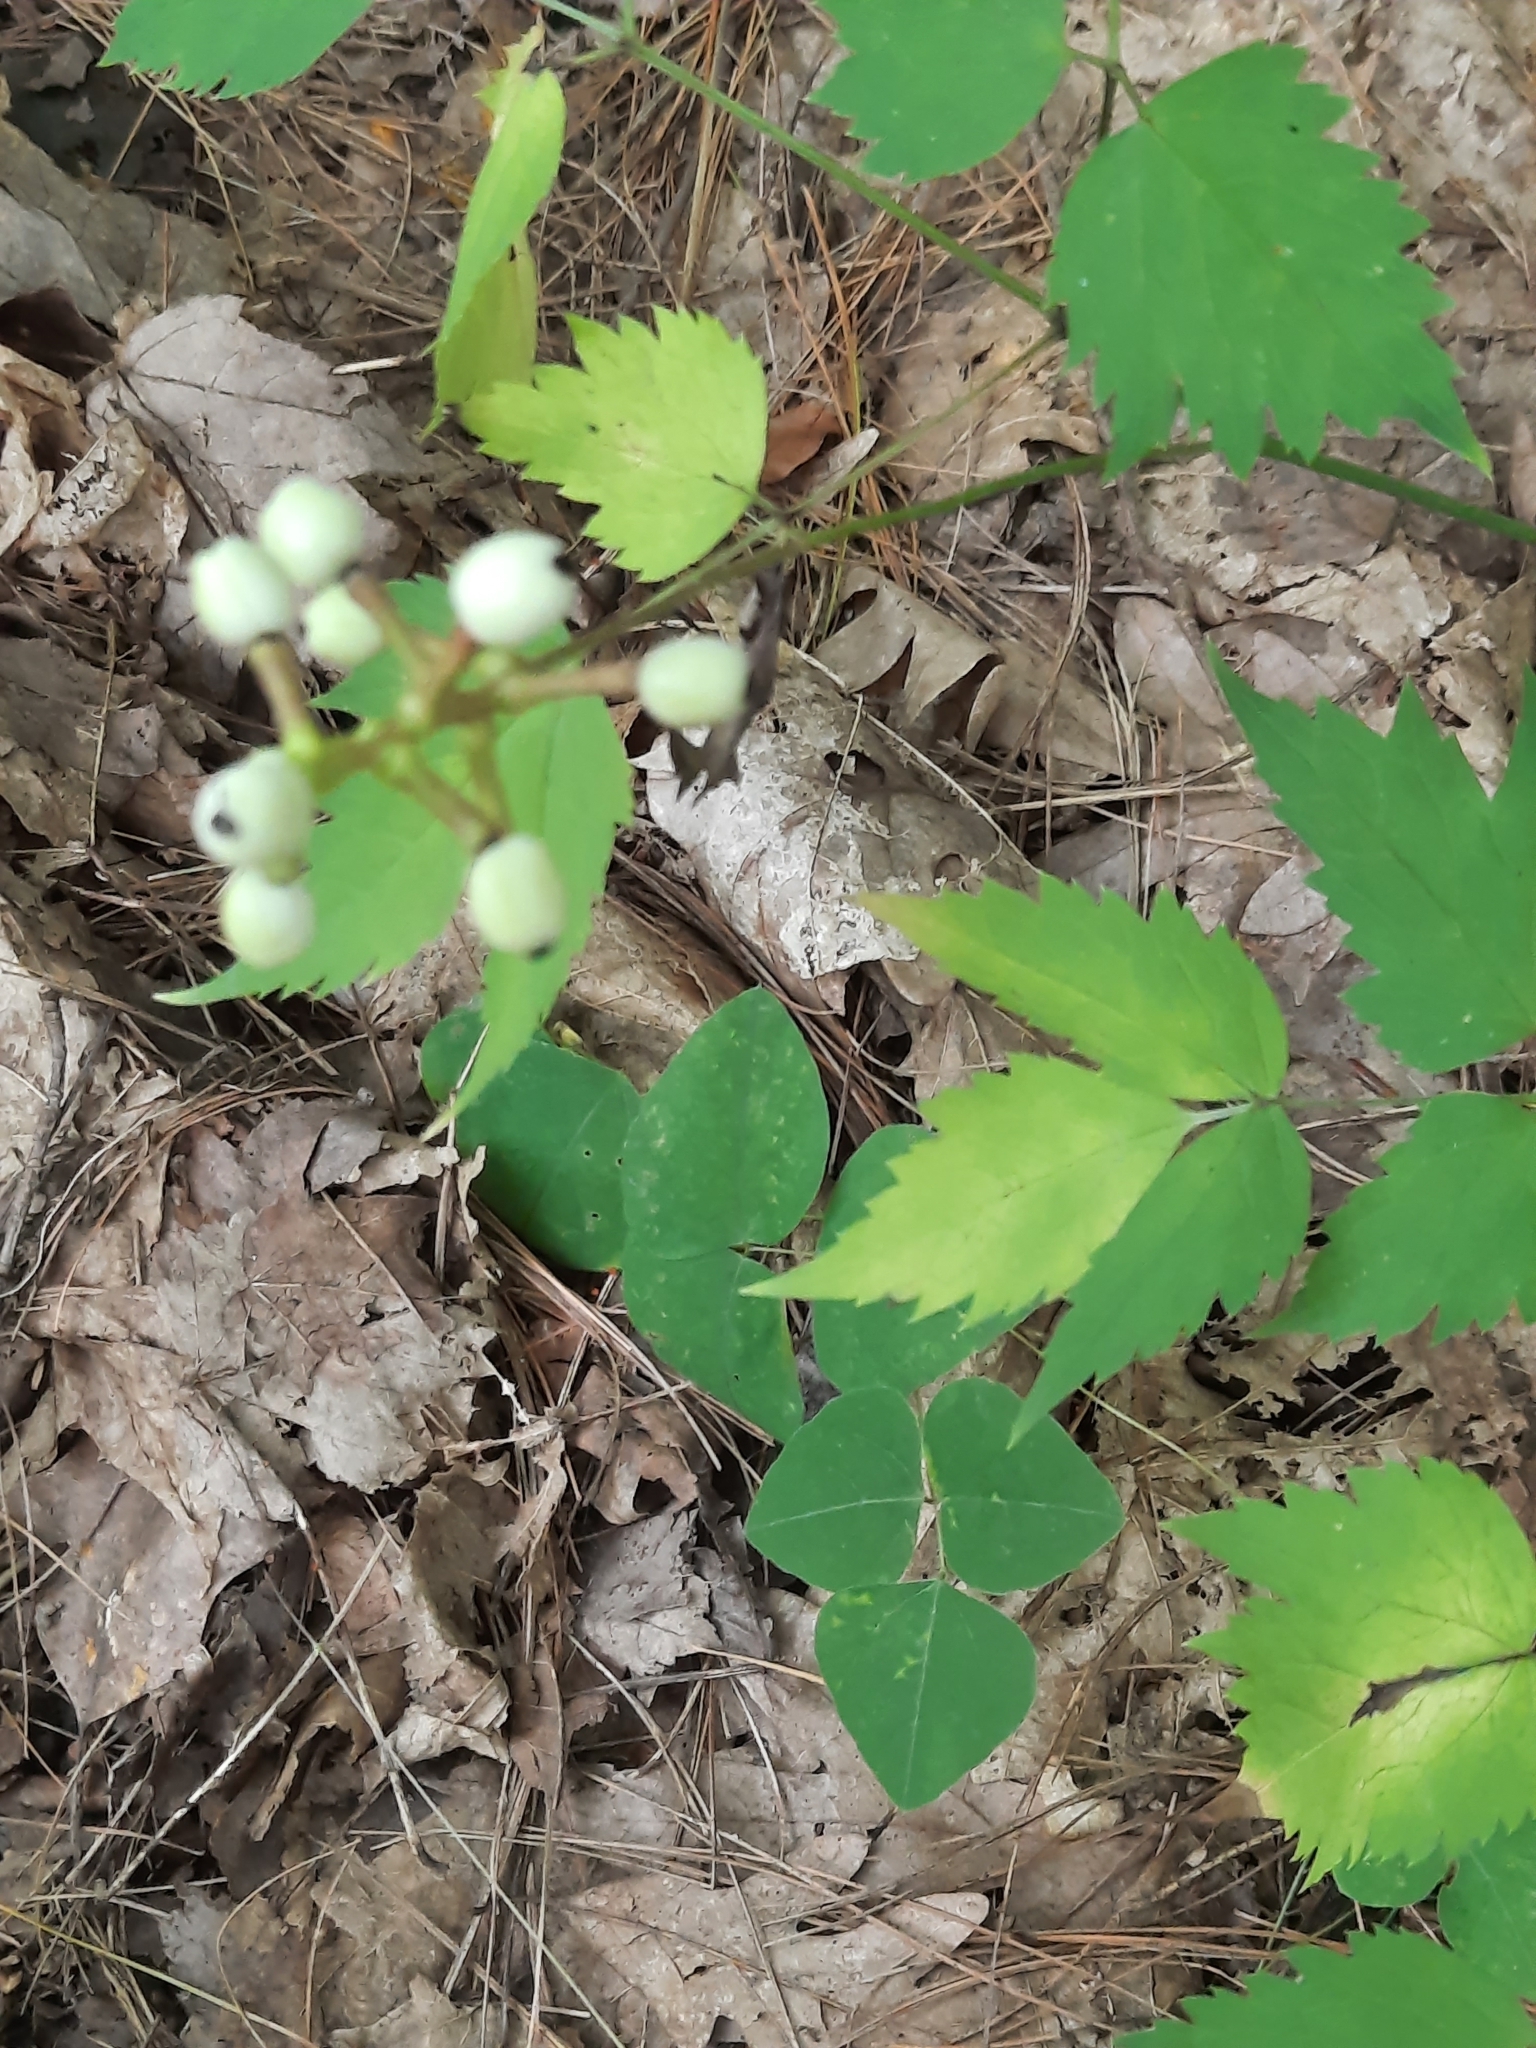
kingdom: Plantae
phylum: Tracheophyta
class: Magnoliopsida
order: Ranunculales
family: Ranunculaceae
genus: Actaea
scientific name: Actaea pachypoda
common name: Doll's-eyes
